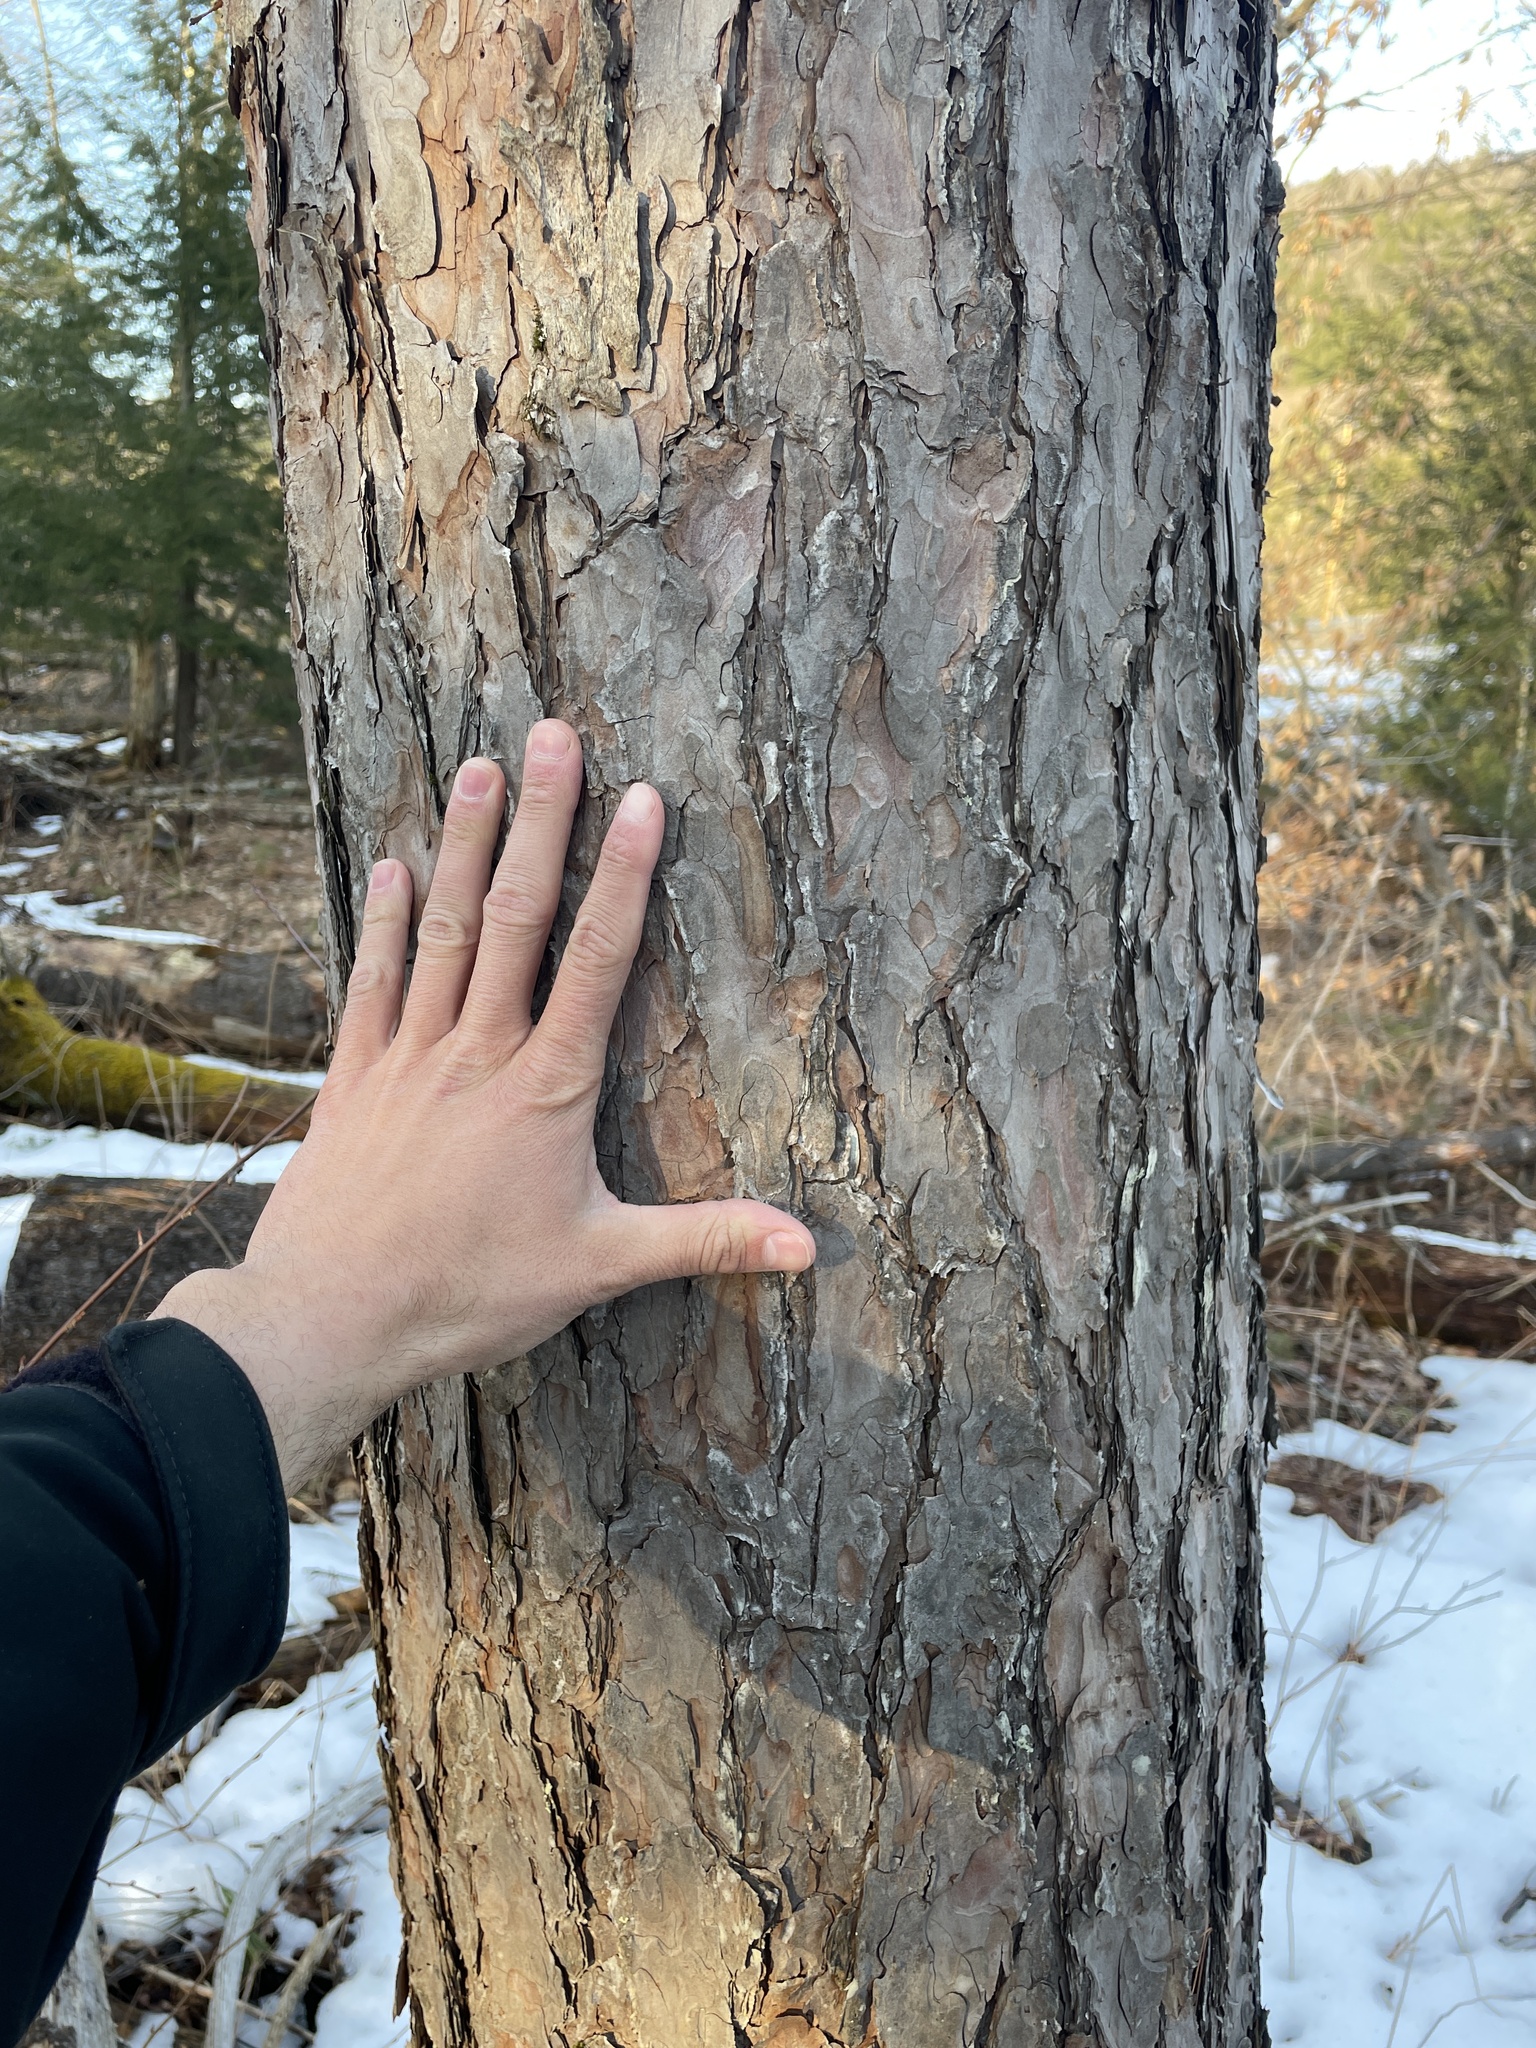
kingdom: Plantae
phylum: Tracheophyta
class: Pinopsida
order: Pinales
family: Pinaceae
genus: Pinus
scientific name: Pinus resinosa
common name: Norway pine
